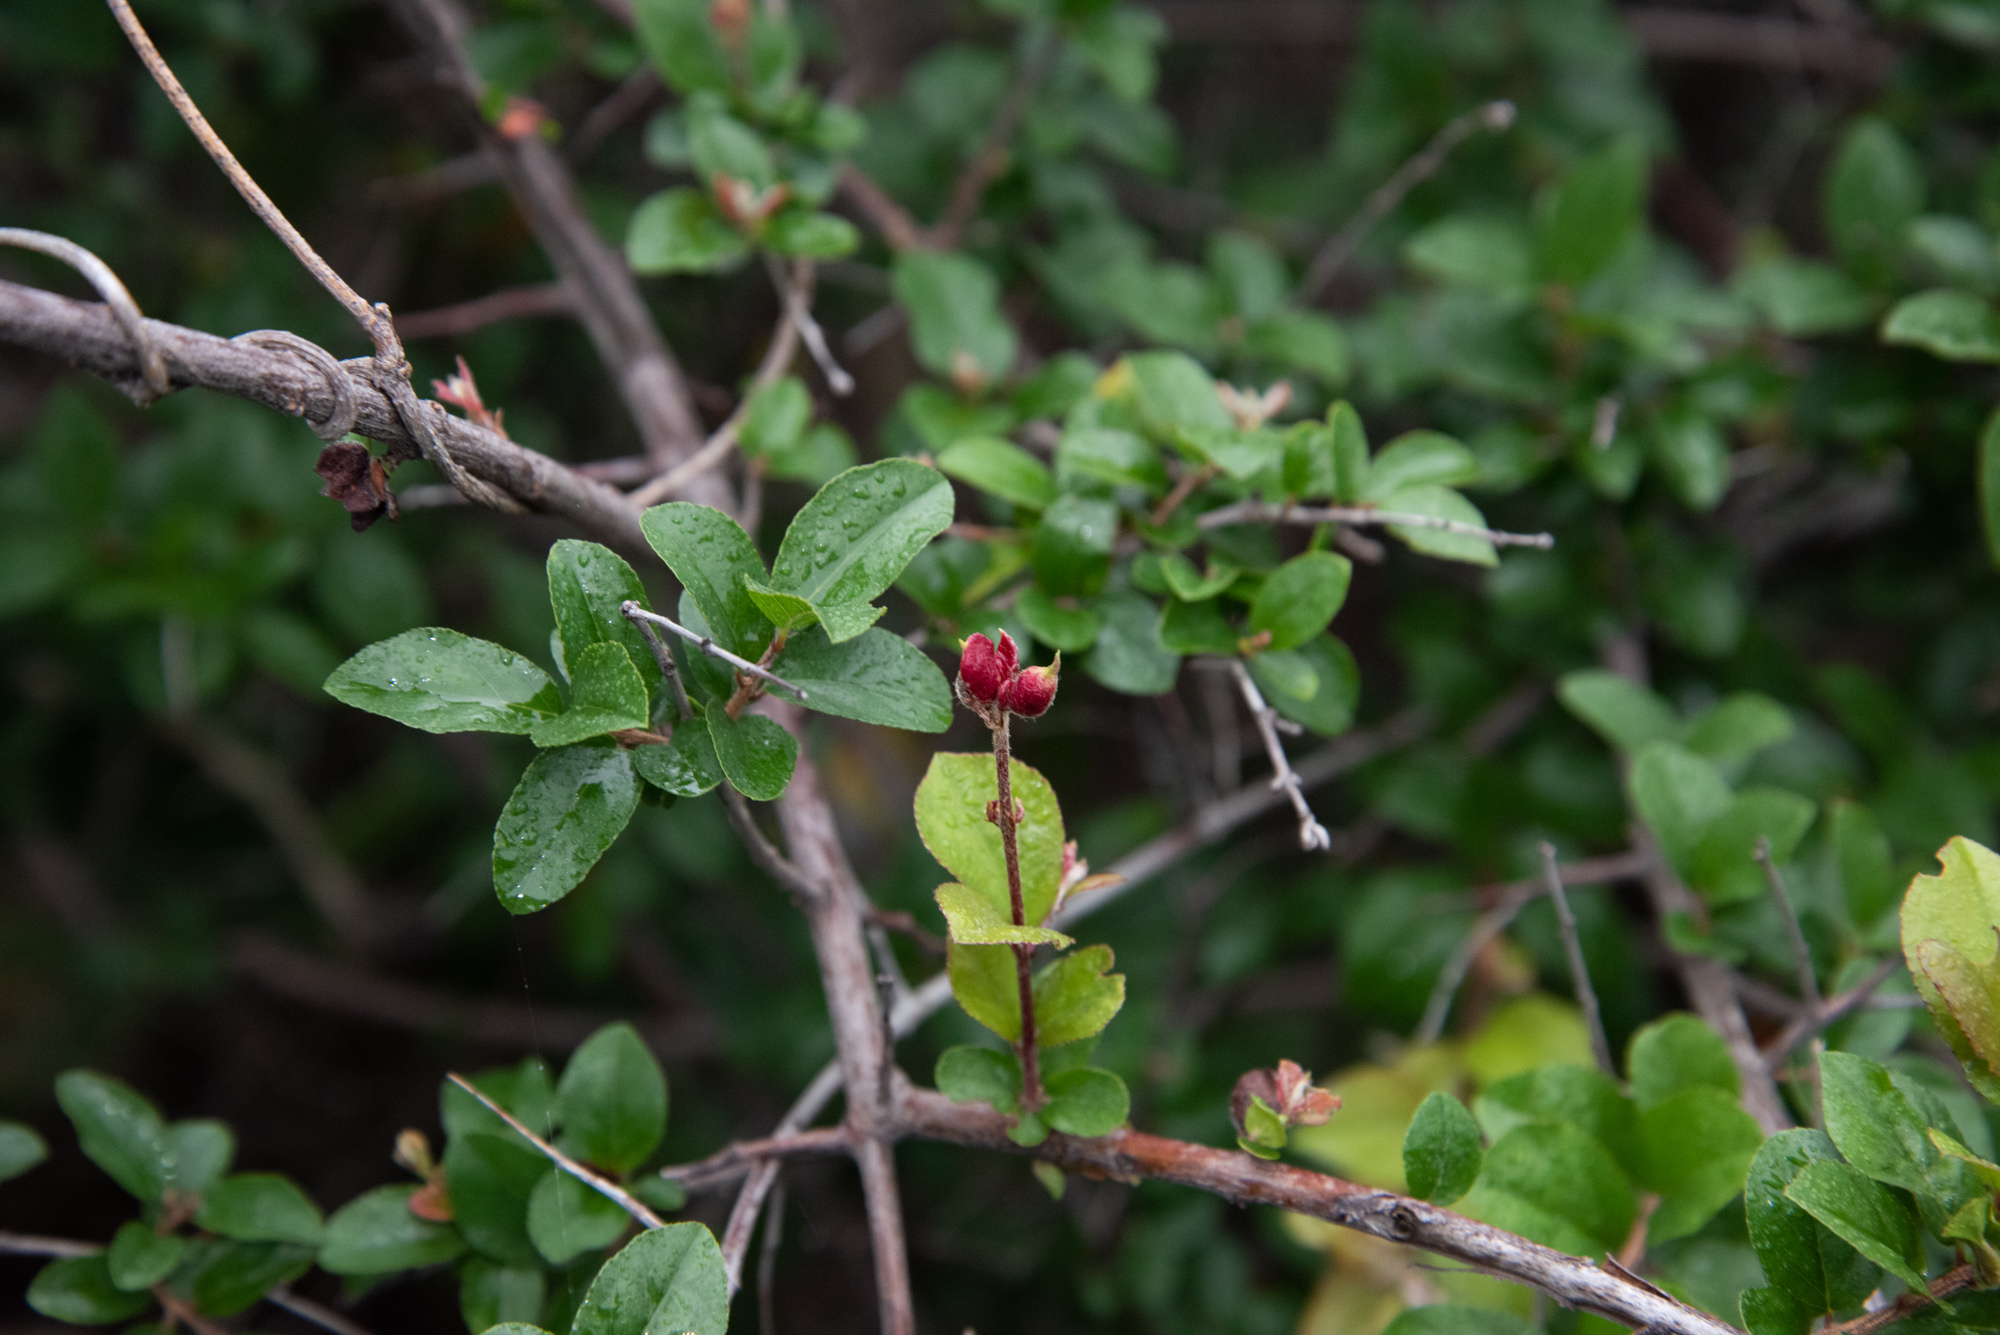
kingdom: Plantae
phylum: Tracheophyta
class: Magnoliopsida
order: Rosales
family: Rhamnaceae
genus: Sageretia
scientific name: Sageretia thea
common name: Pauper's-tea
